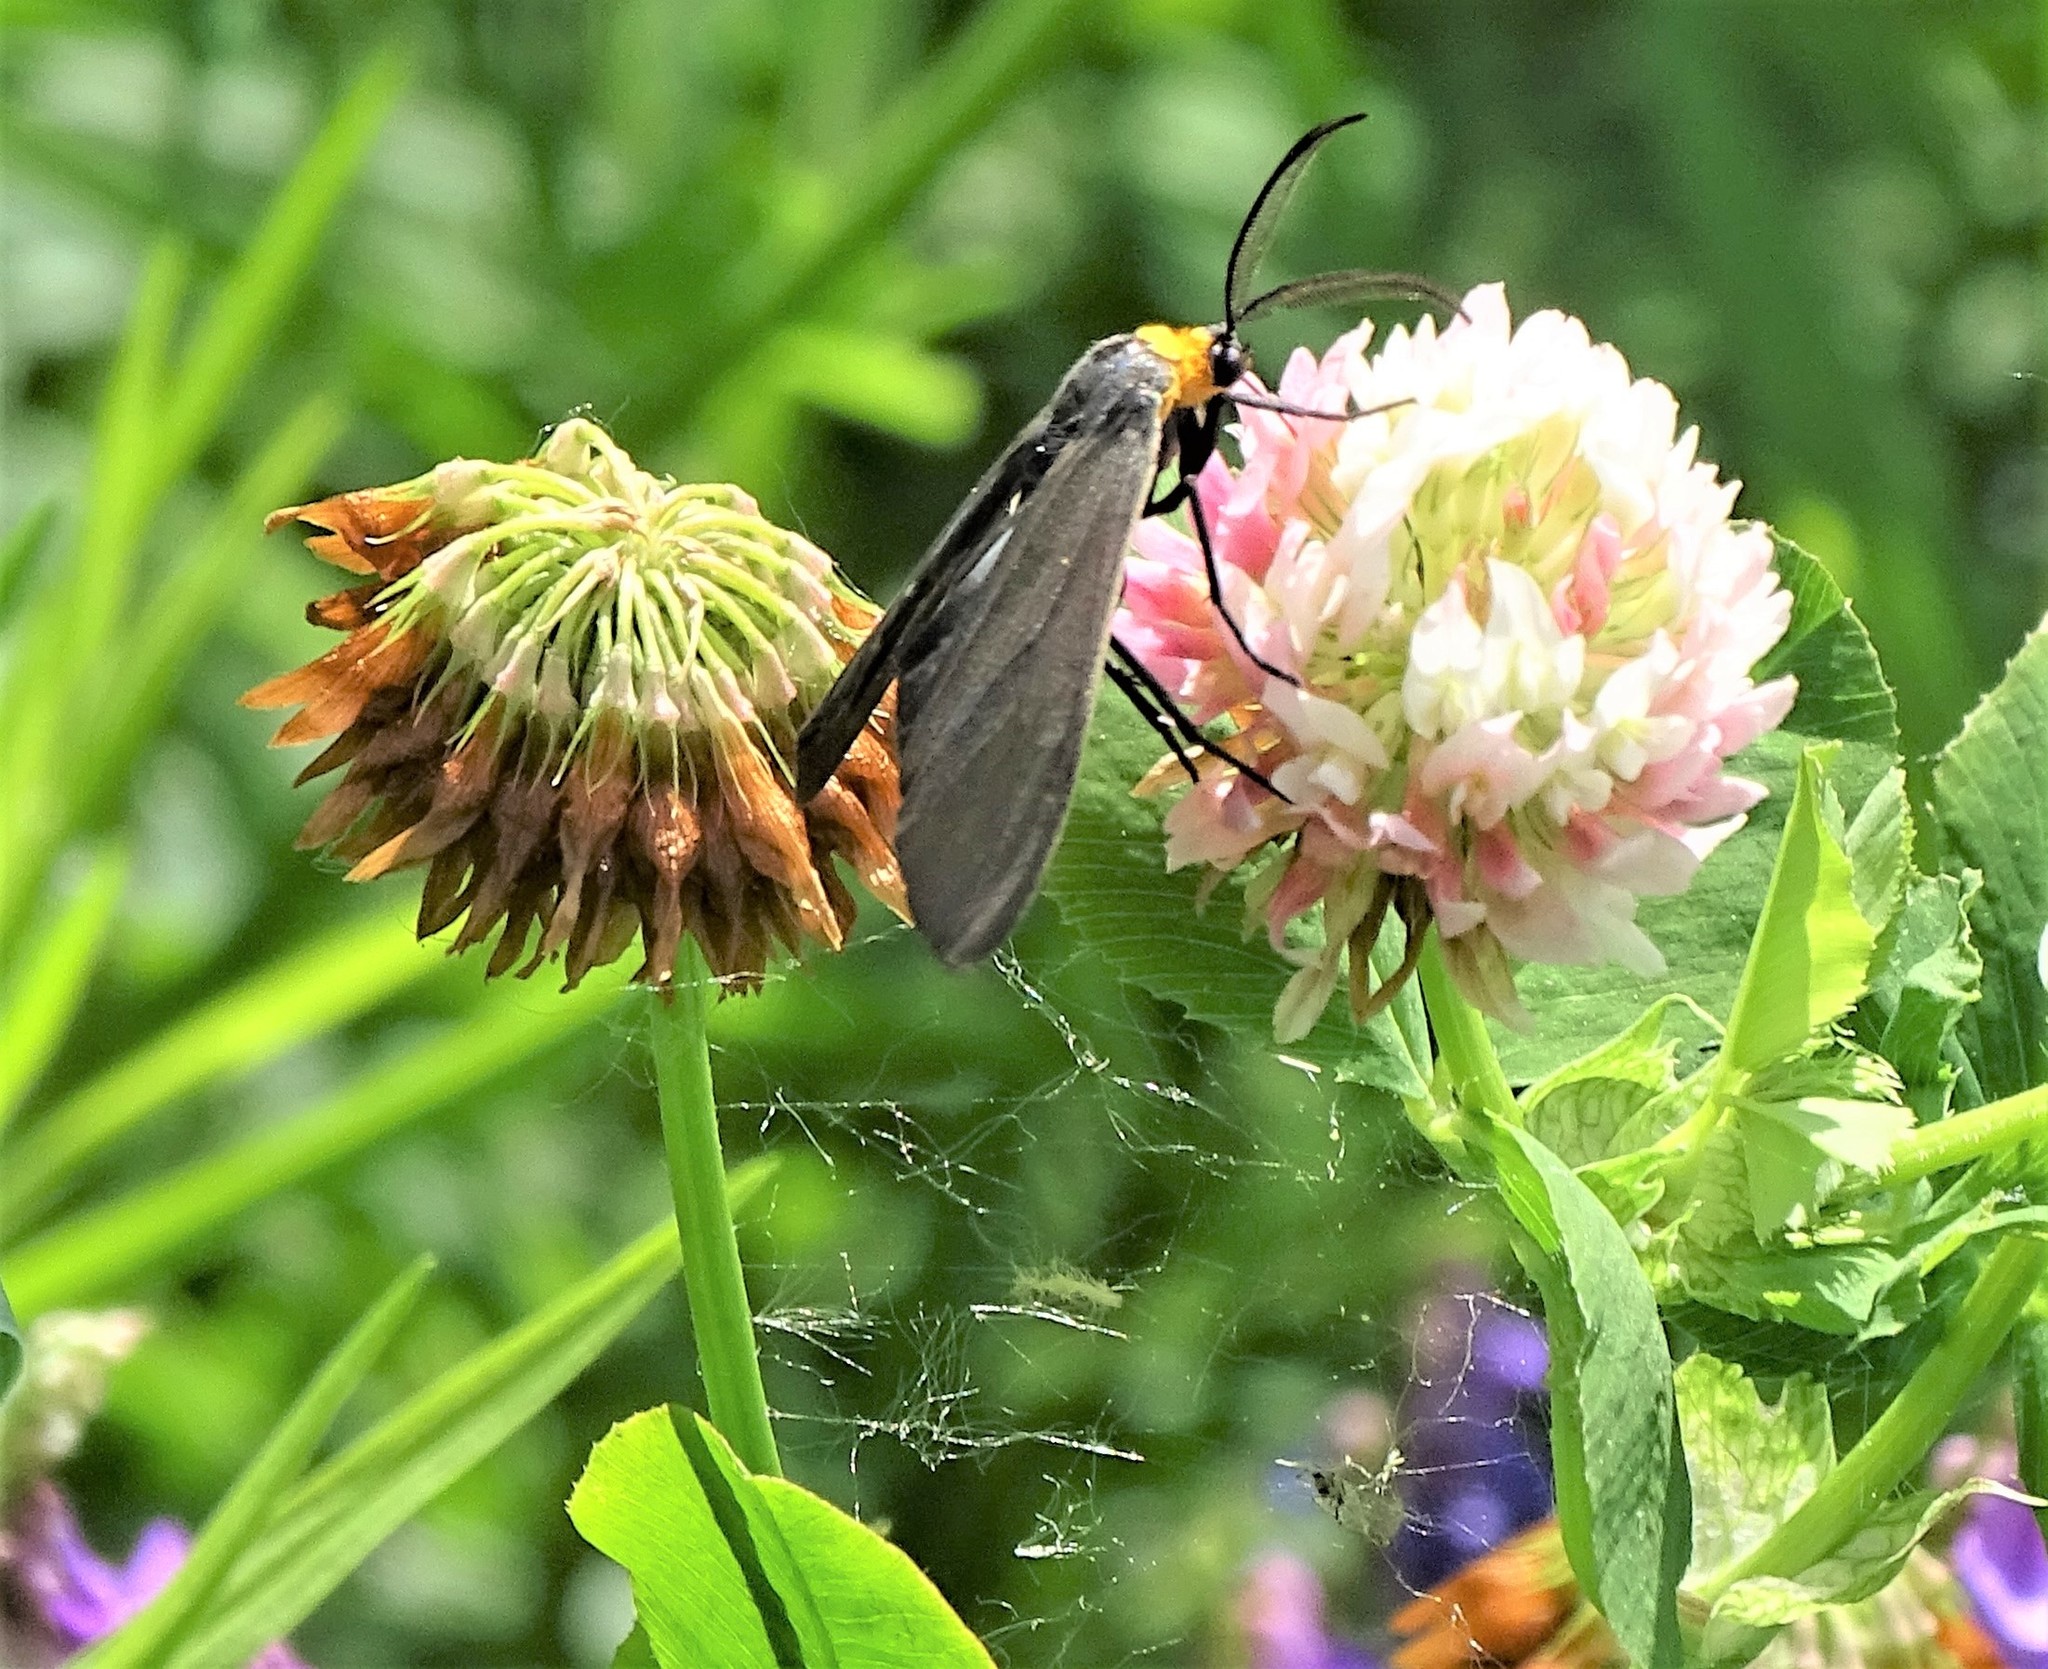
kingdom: Animalia
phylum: Arthropoda
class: Insecta
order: Lepidoptera
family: Erebidae
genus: Cisseps
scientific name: Cisseps fulvicollis
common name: Yellow-collared scape moth
